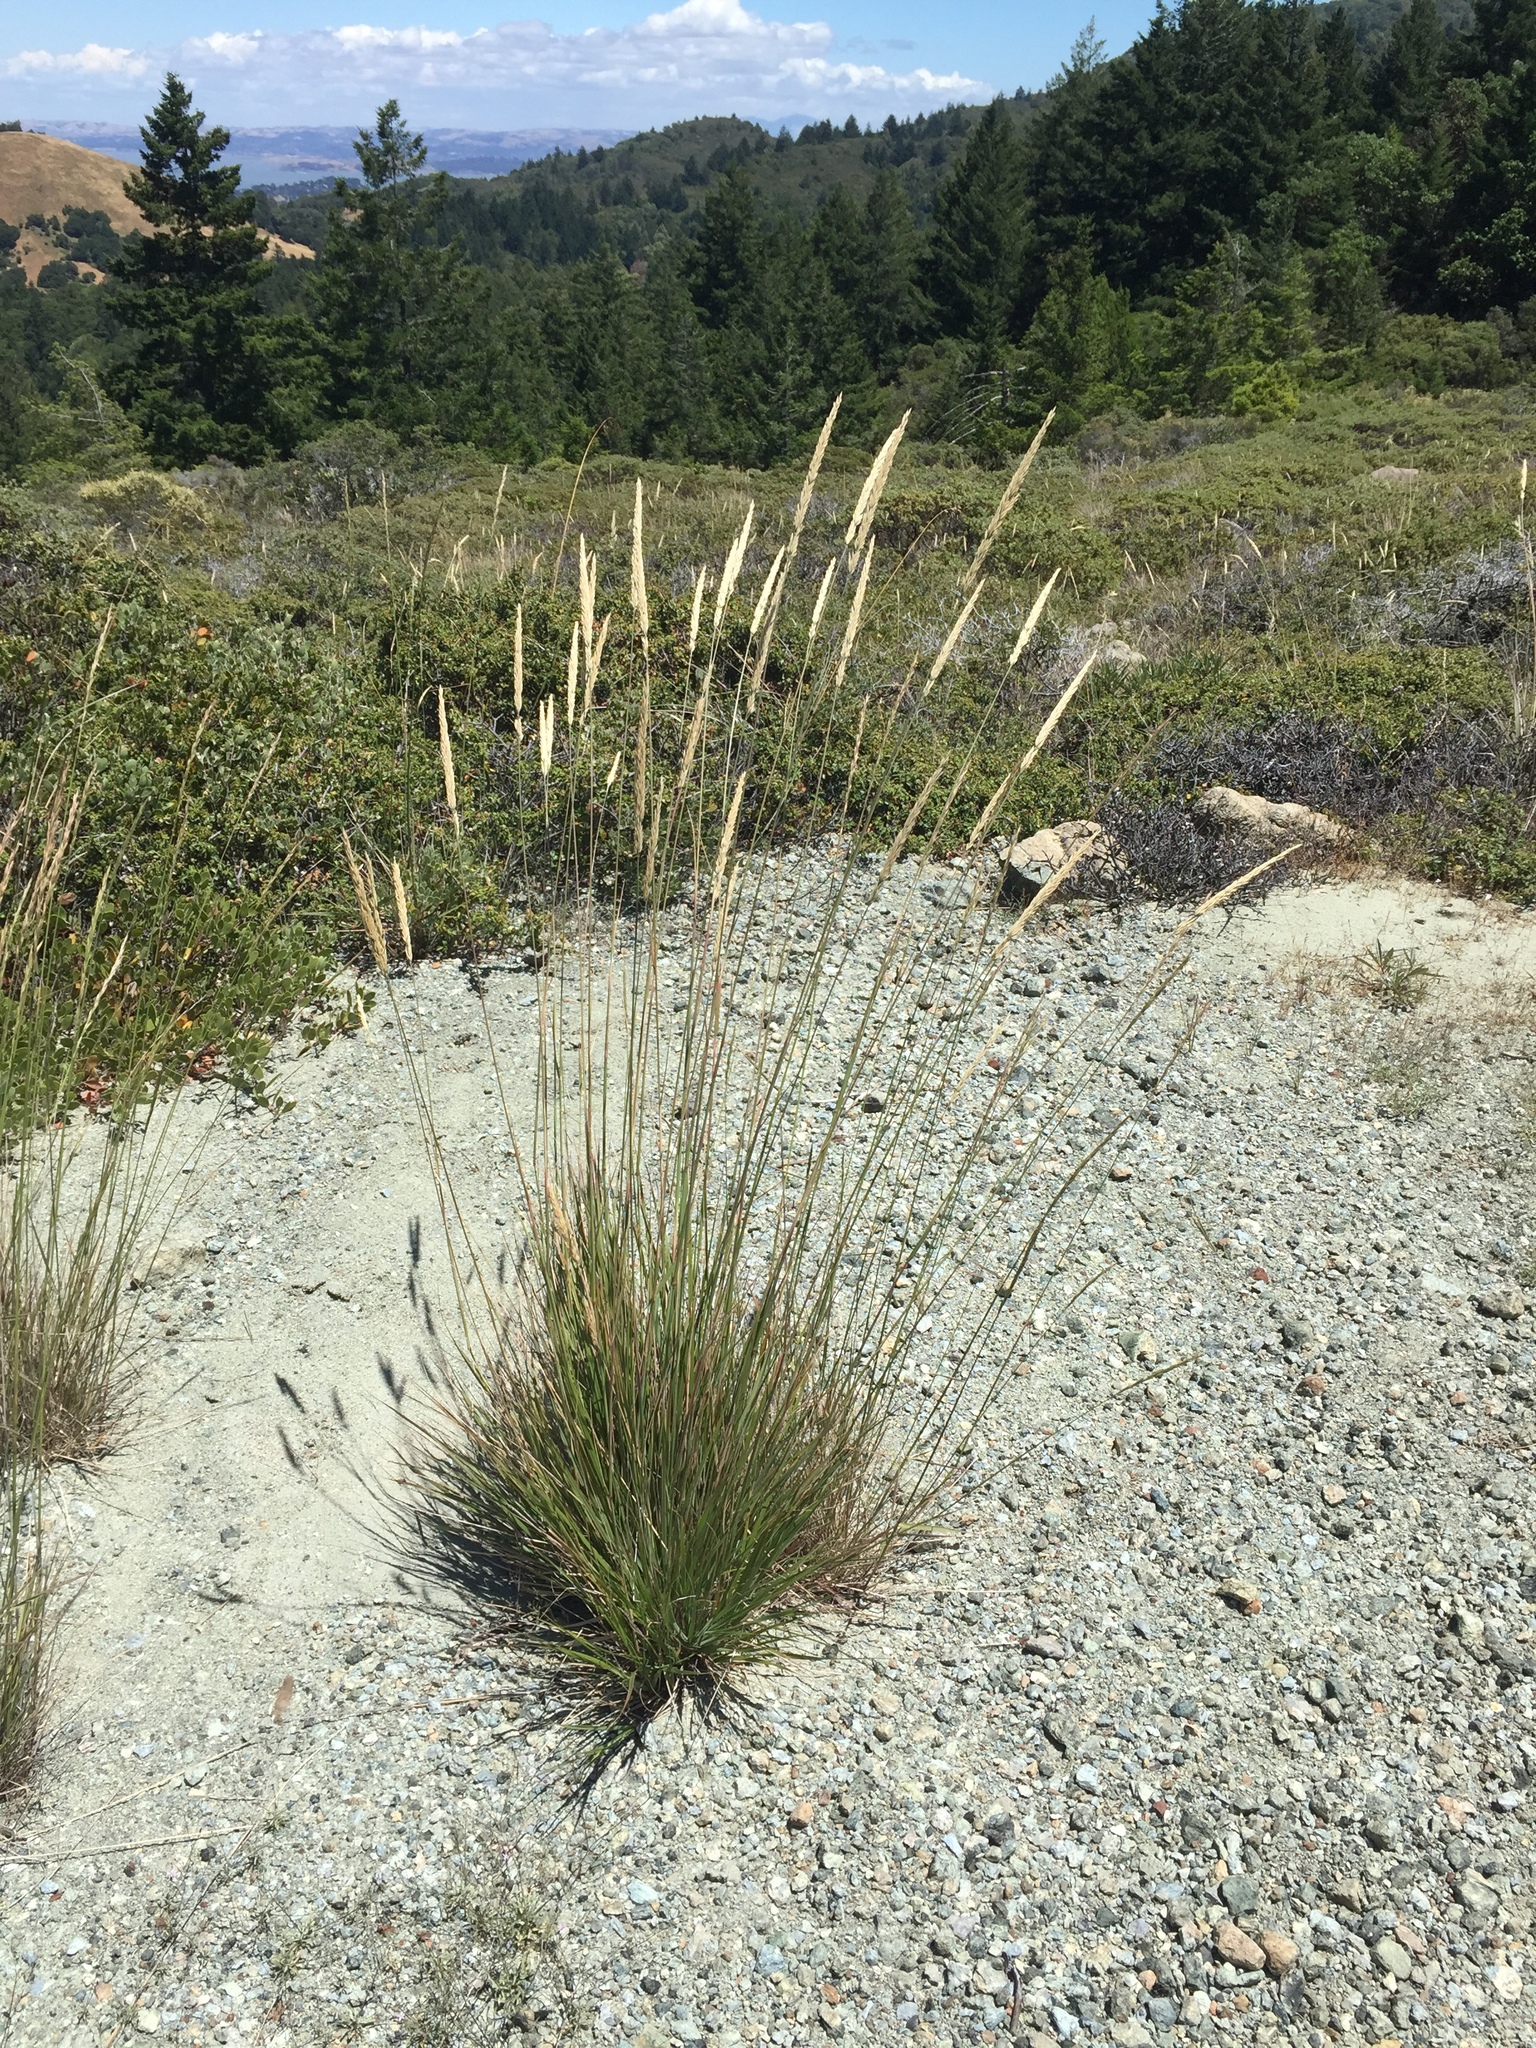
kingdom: Plantae
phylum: Tracheophyta
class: Liliopsida
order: Poales
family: Poaceae
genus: Calamagrostis
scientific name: Calamagrostis ophitidis
